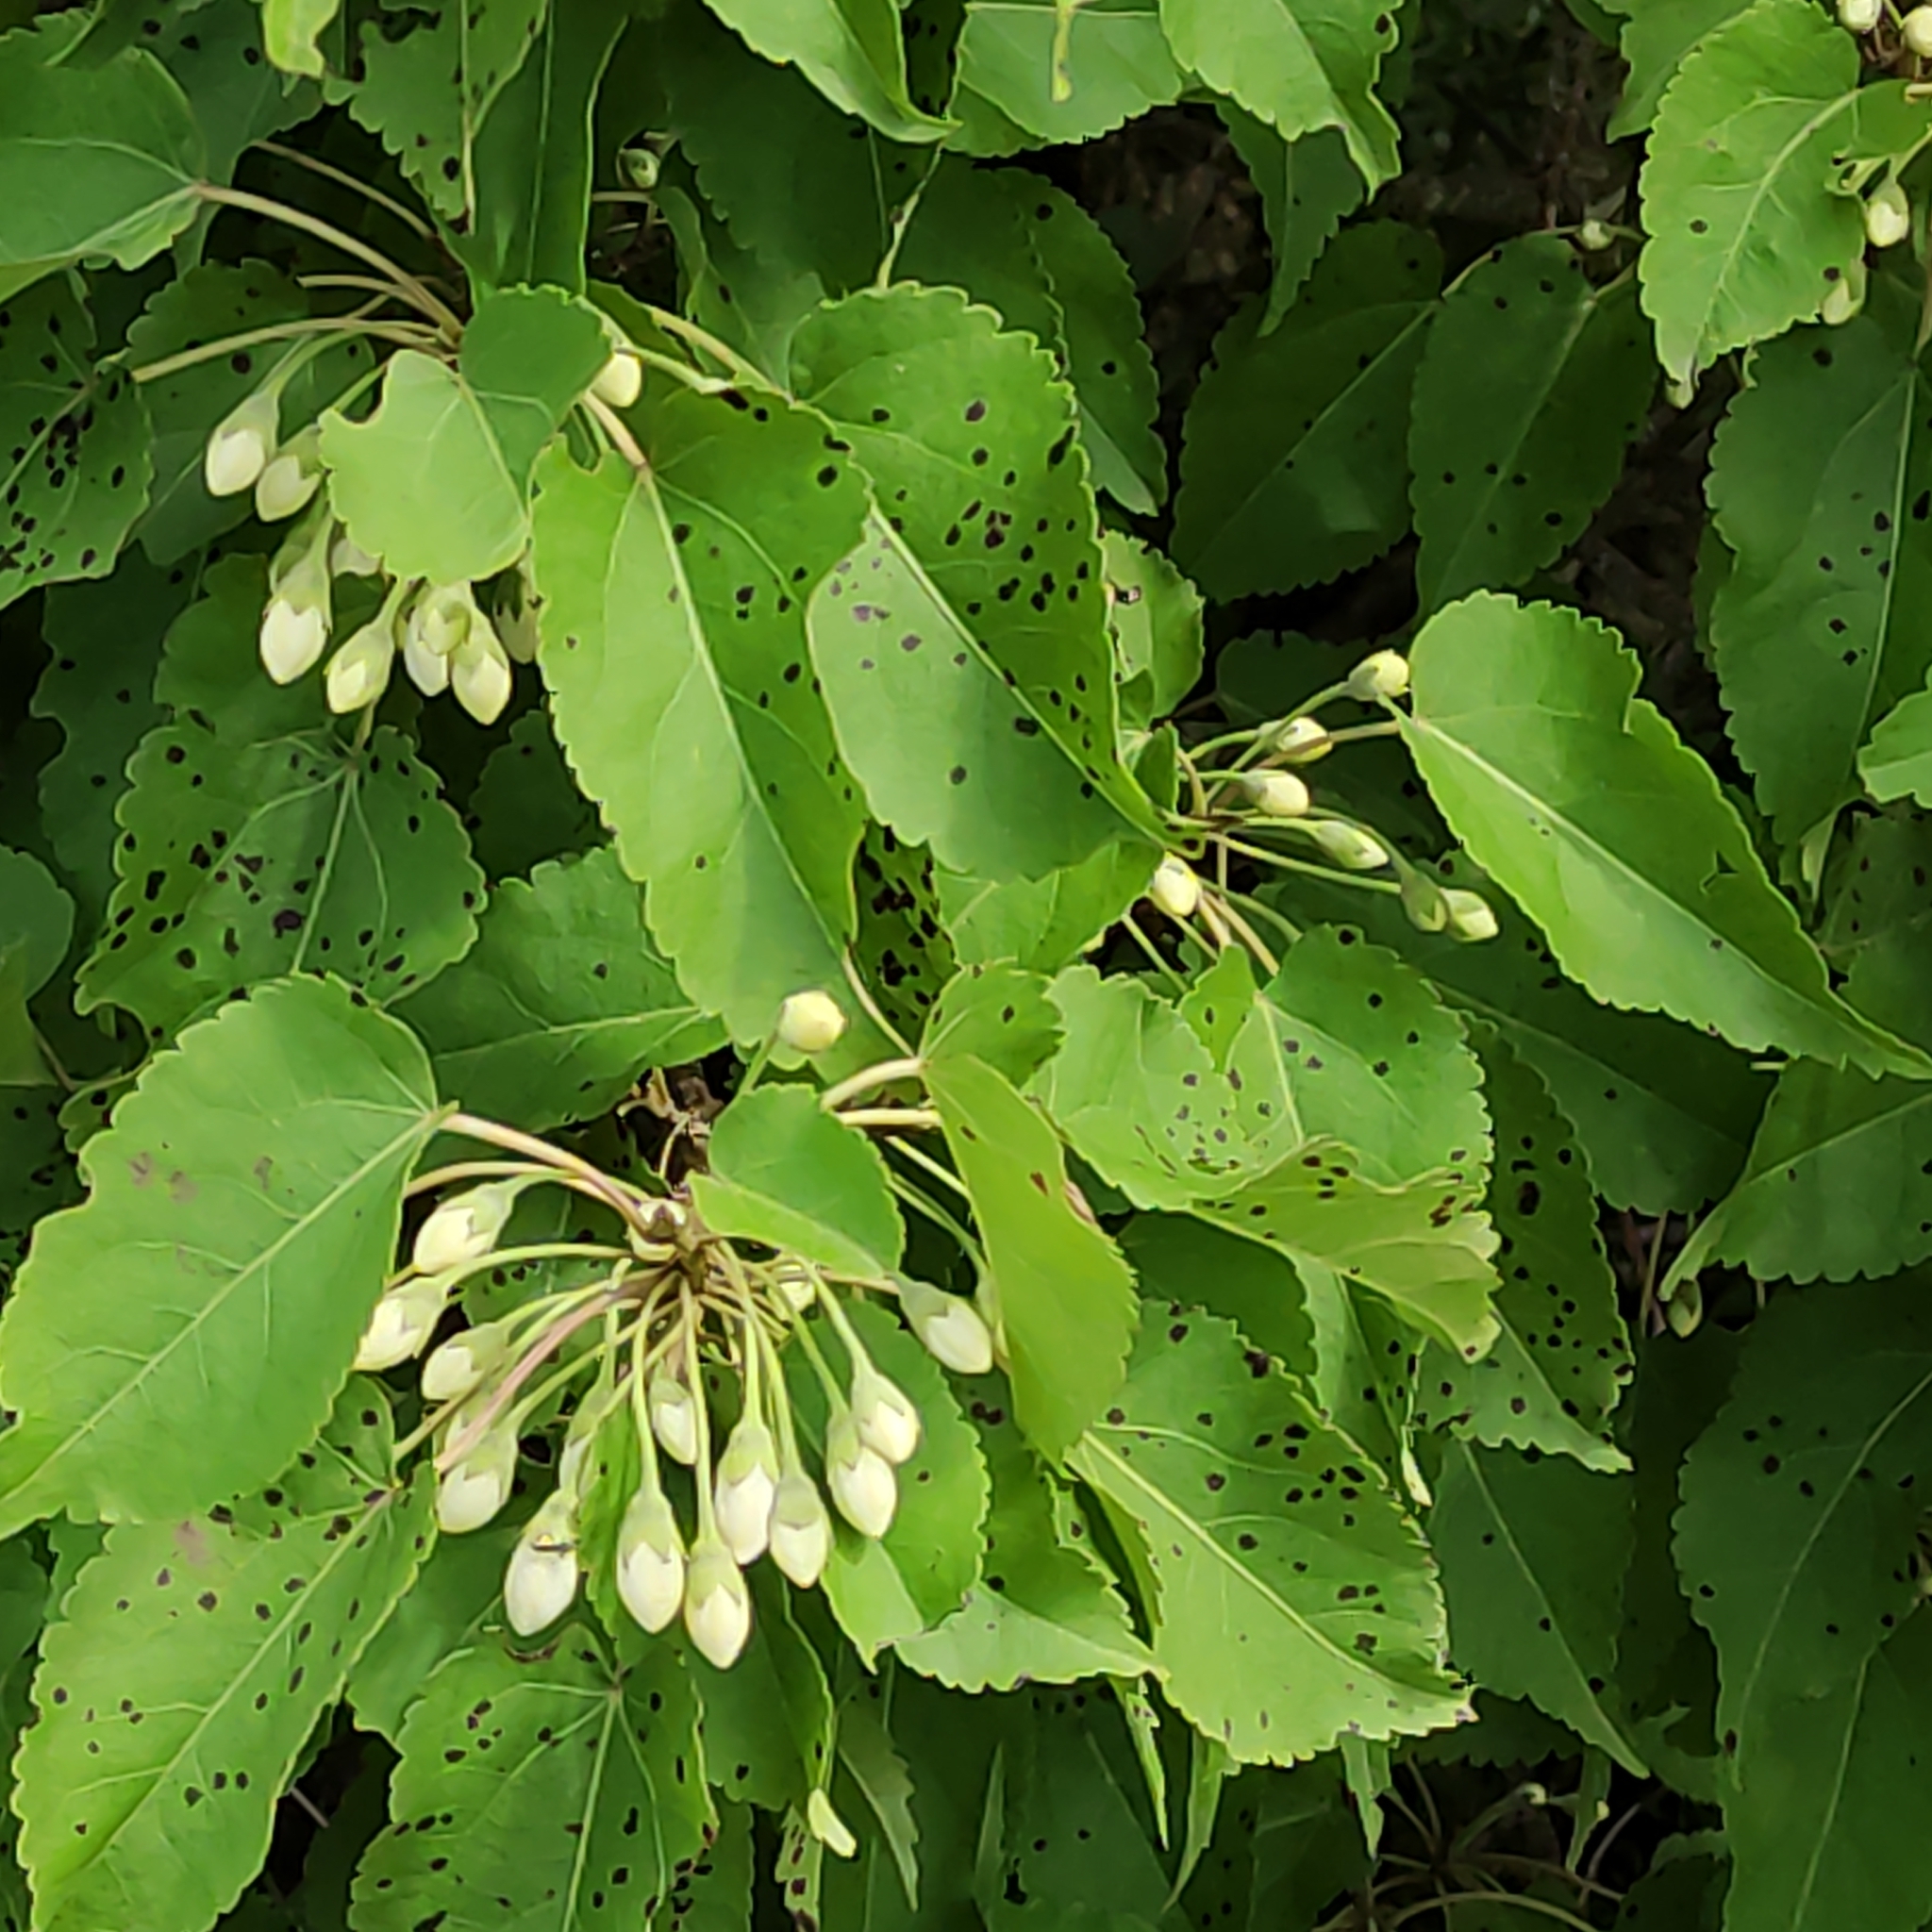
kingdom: Plantae
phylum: Tracheophyta
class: Magnoliopsida
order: Malvales
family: Malvaceae
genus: Hoheria
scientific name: Hoheria glabrata
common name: Mountain-ribbon
